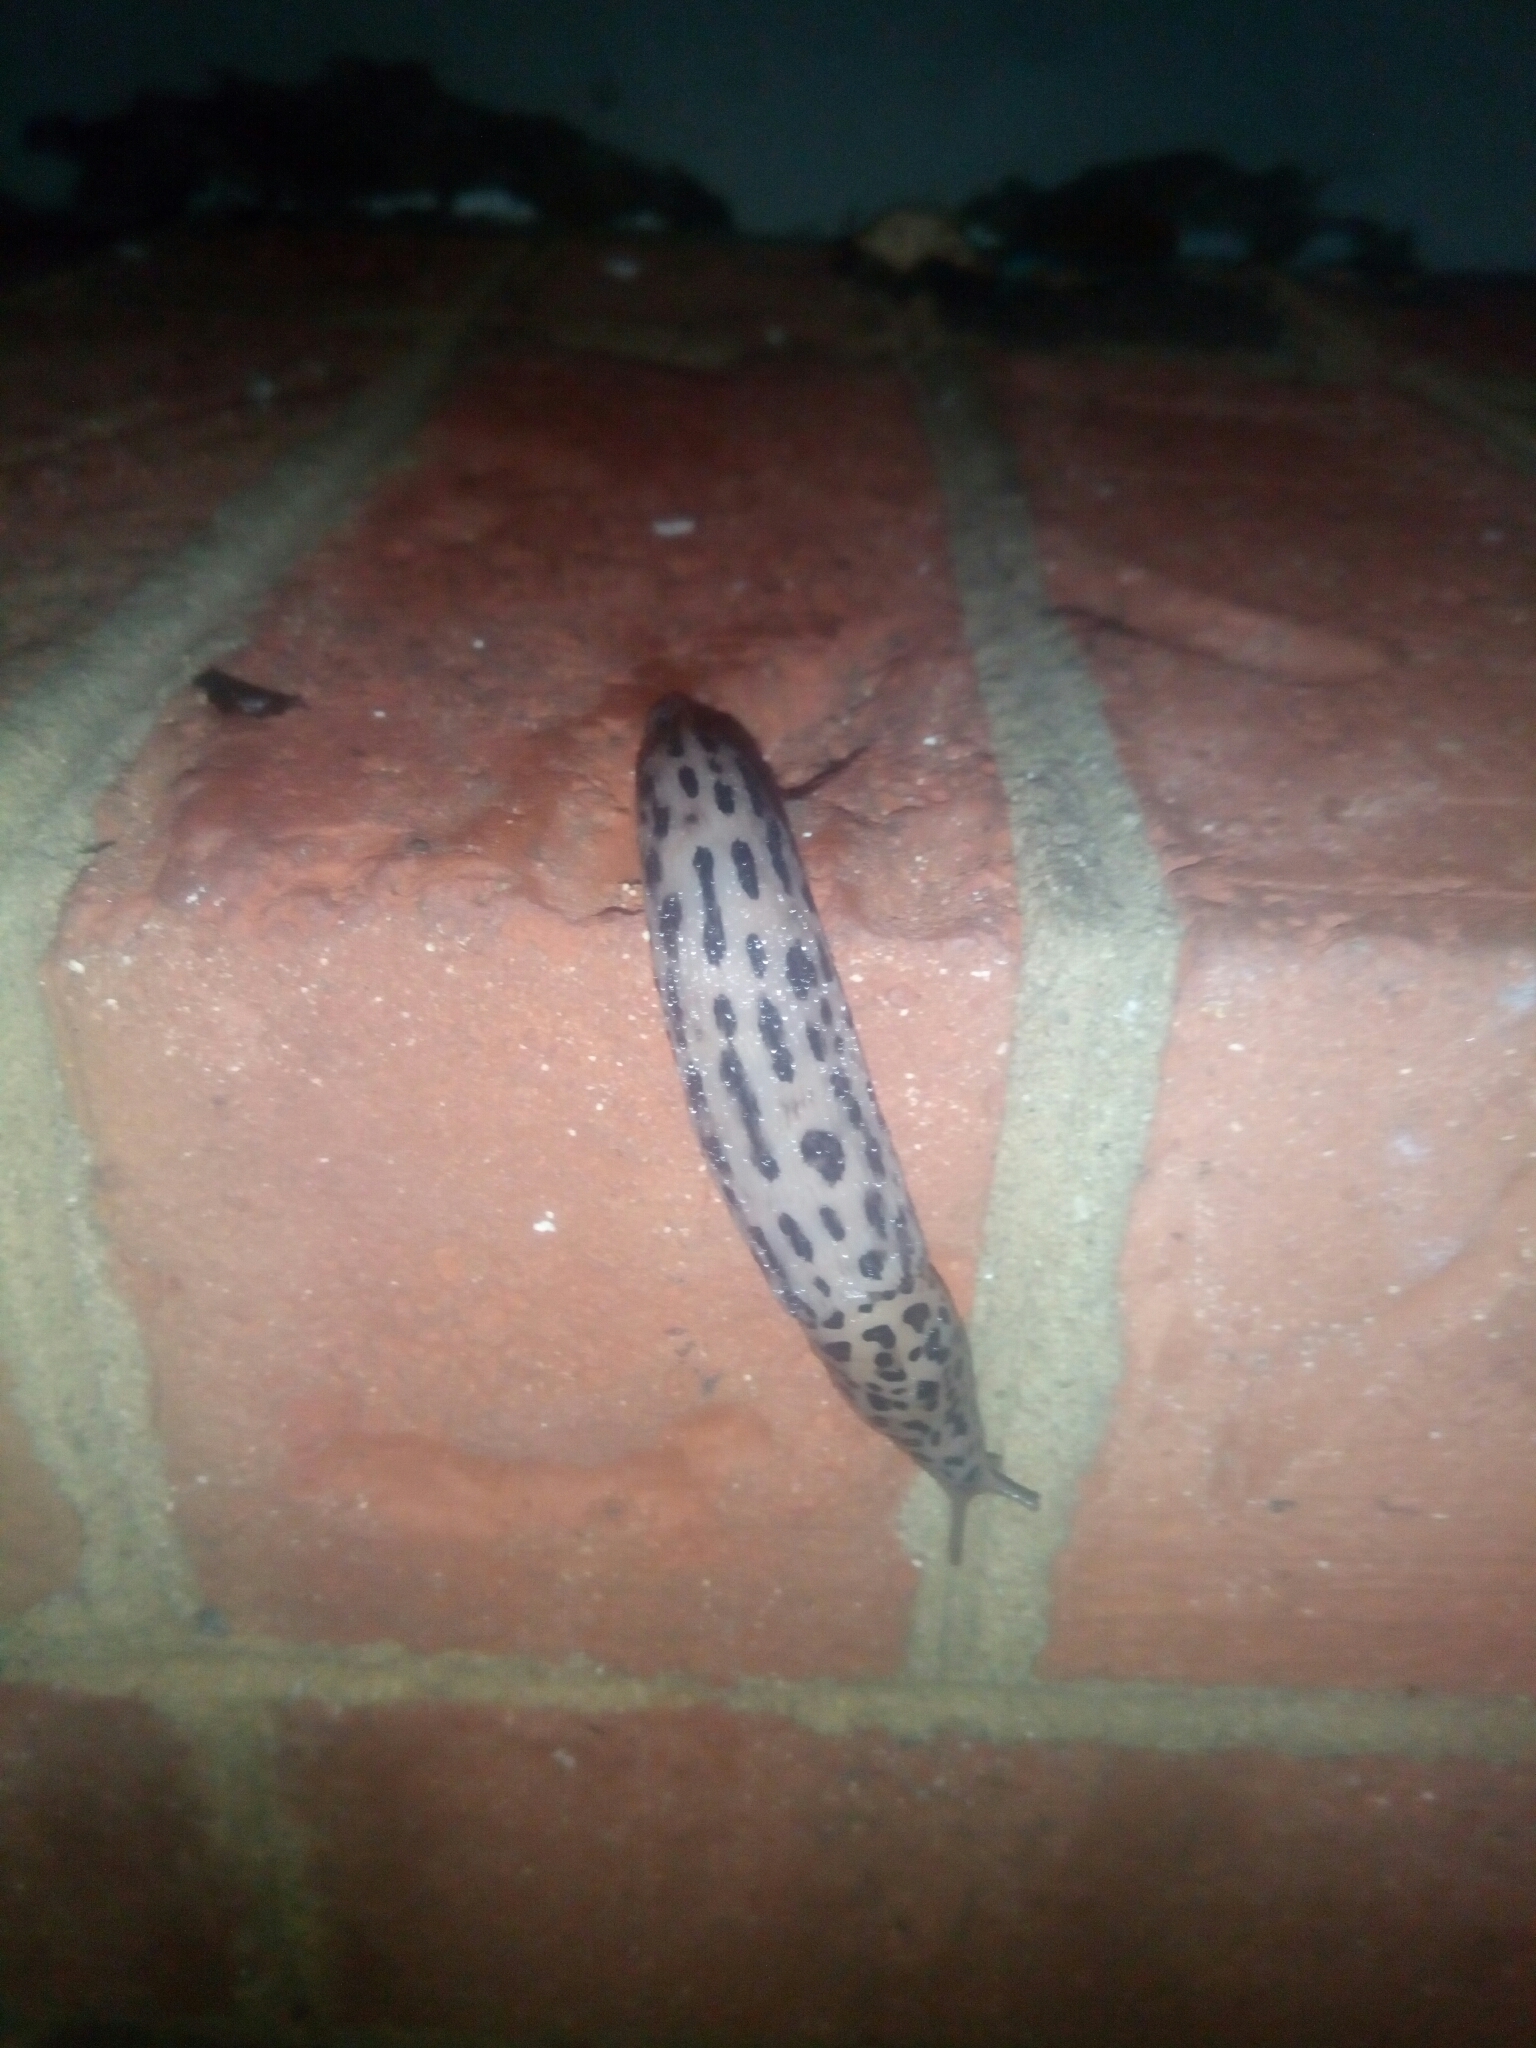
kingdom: Animalia
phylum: Mollusca
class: Gastropoda
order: Stylommatophora
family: Limacidae
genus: Limax
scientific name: Limax maximus
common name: Great grey slug
